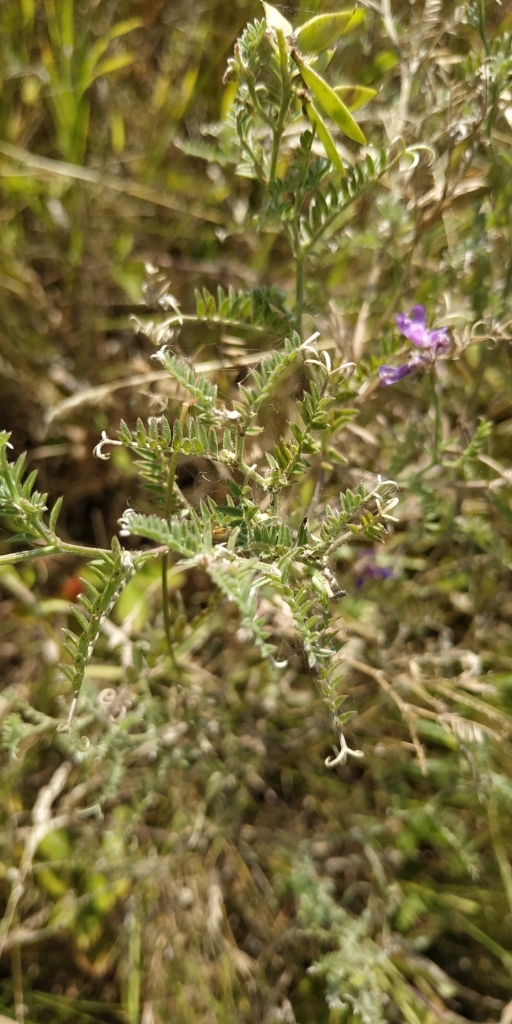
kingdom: Plantae
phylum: Tracheophyta
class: Magnoliopsida
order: Fabales
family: Fabaceae
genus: Vicia
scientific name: Vicia cracca
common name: Bird vetch
